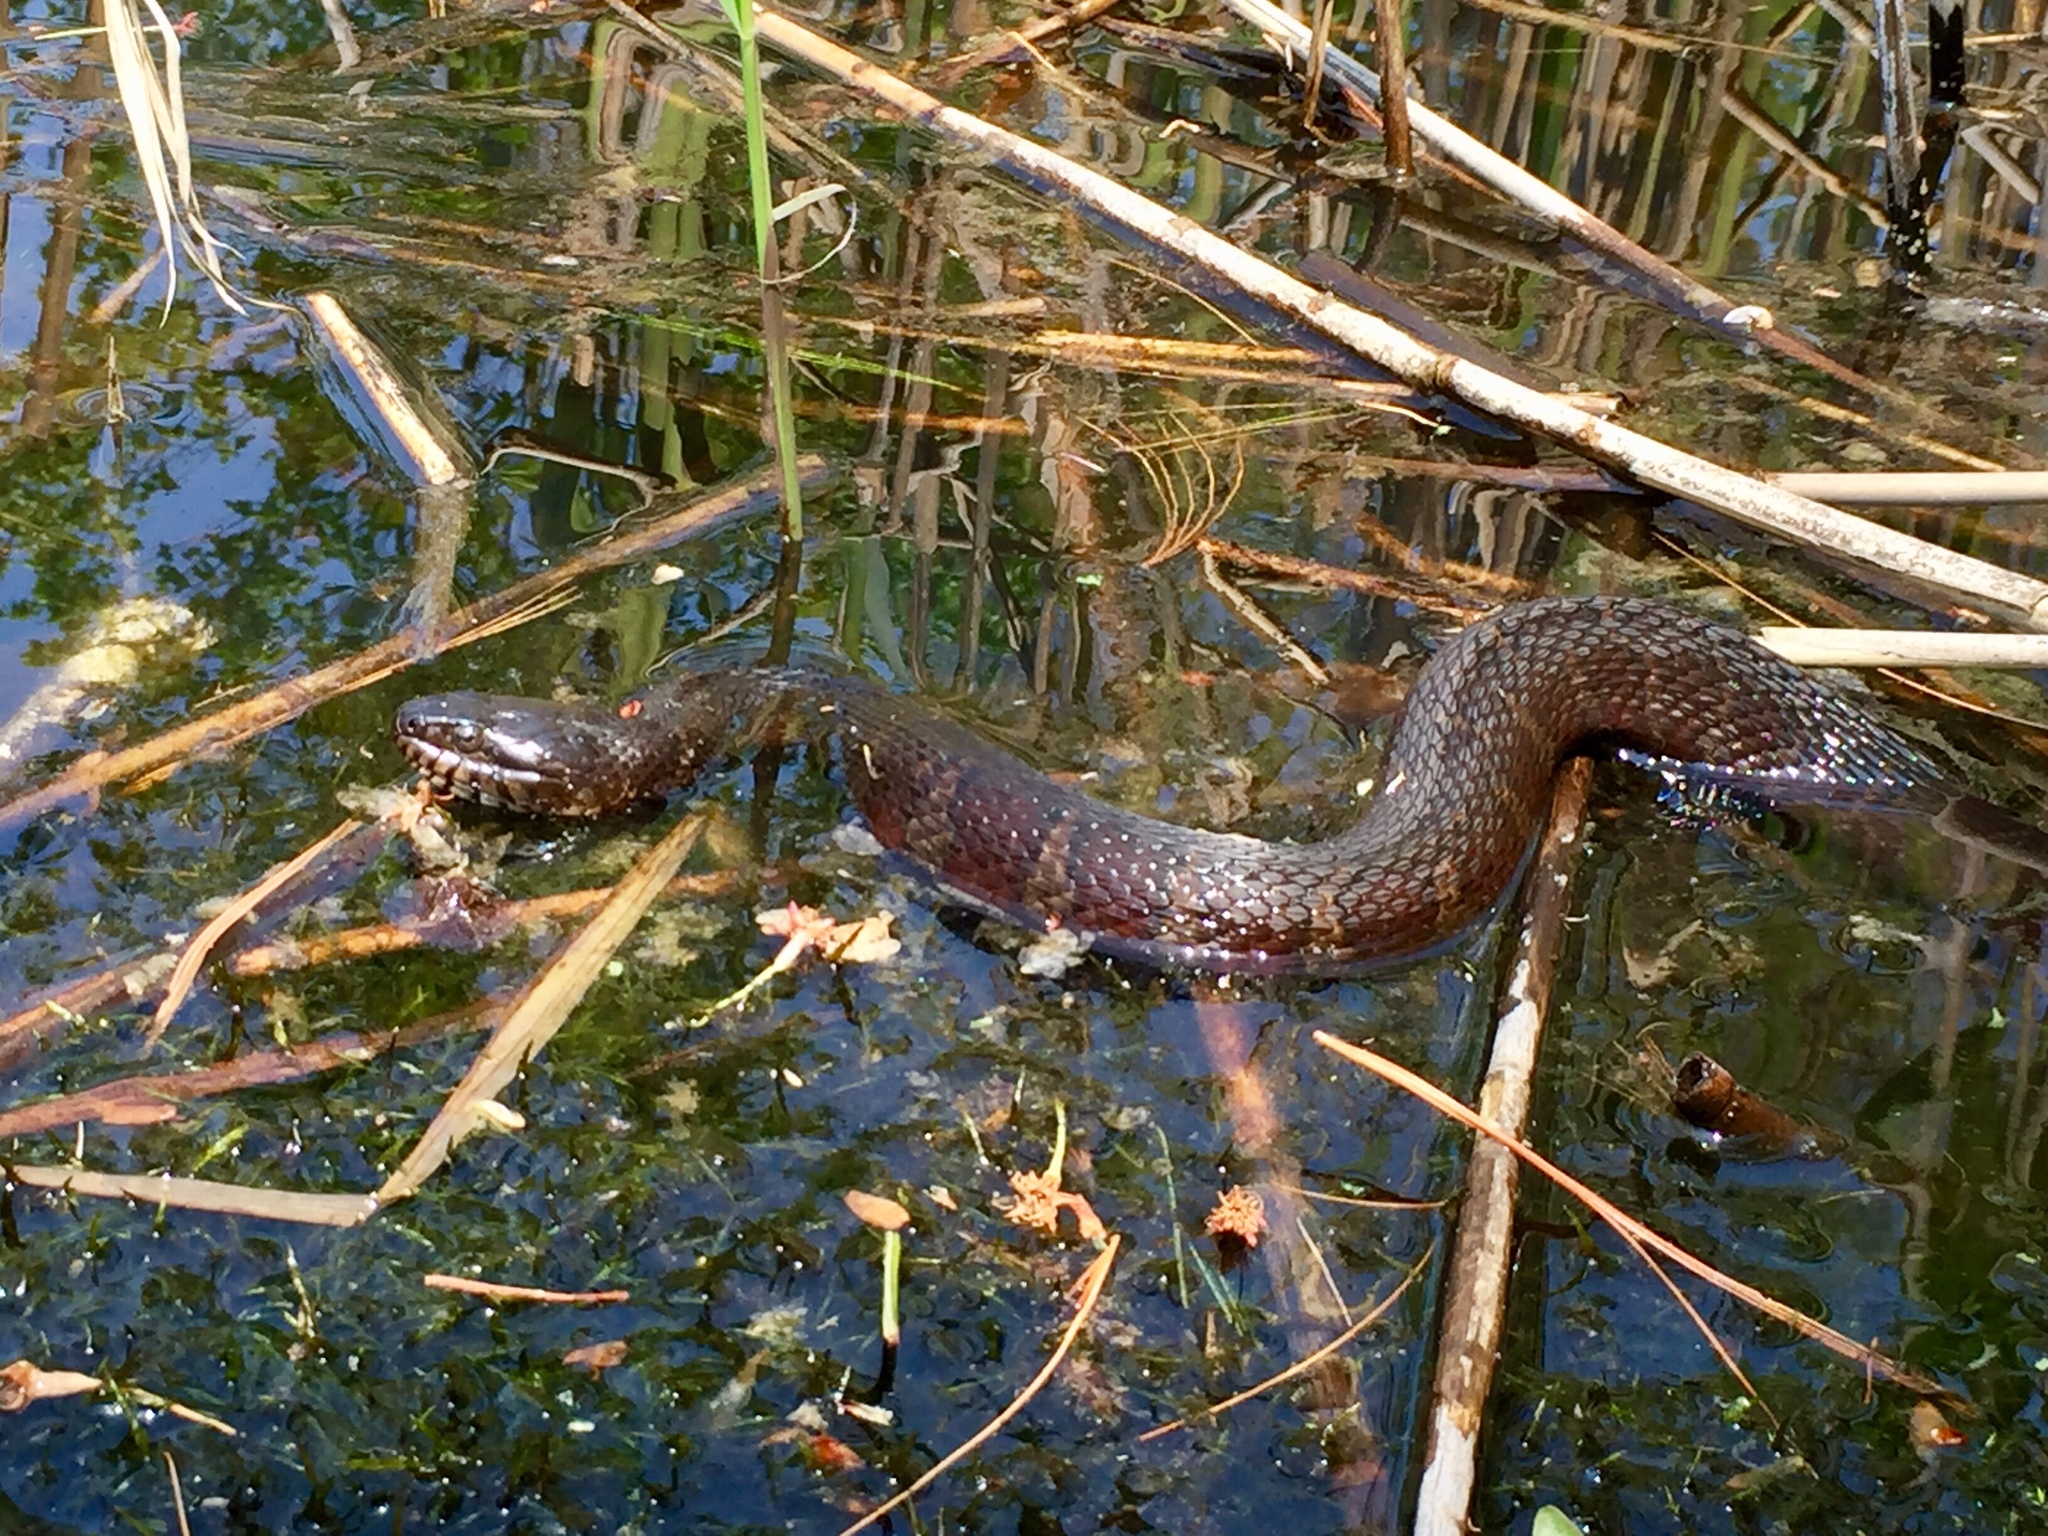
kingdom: Animalia
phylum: Chordata
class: Squamata
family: Colubridae
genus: Nerodia
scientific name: Nerodia sipedon
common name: Northern water snake
